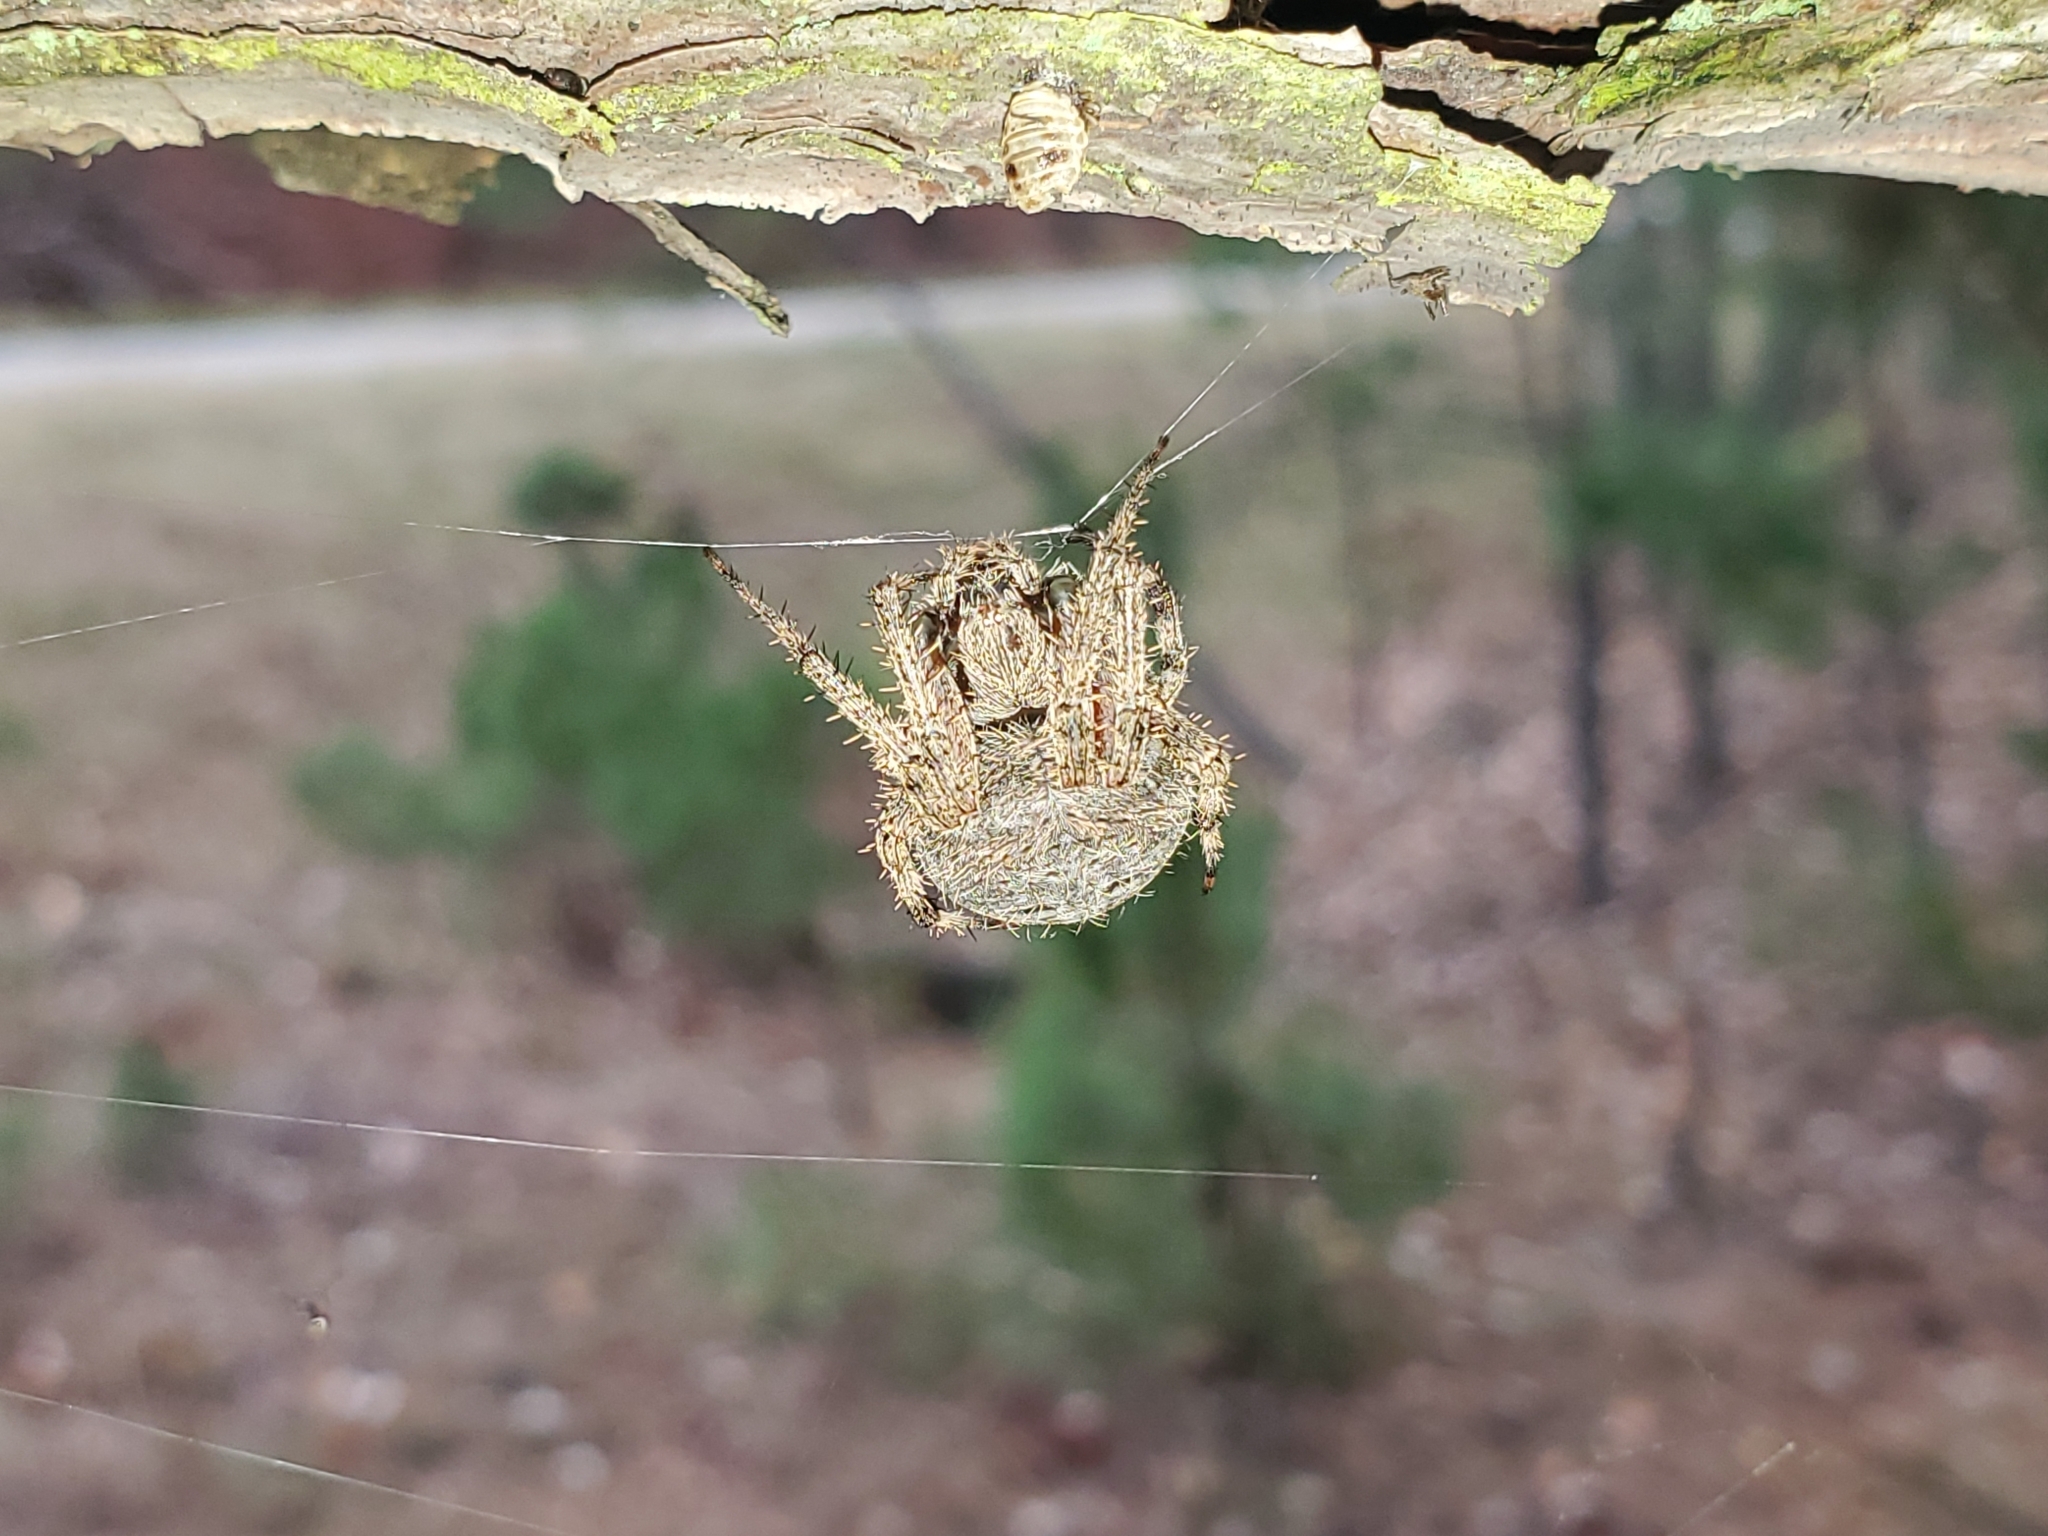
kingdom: Animalia
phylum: Arthropoda
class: Arachnida
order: Araneae
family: Araneidae
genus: Neoscona
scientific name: Neoscona crucifera
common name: Spotted orbweaver
